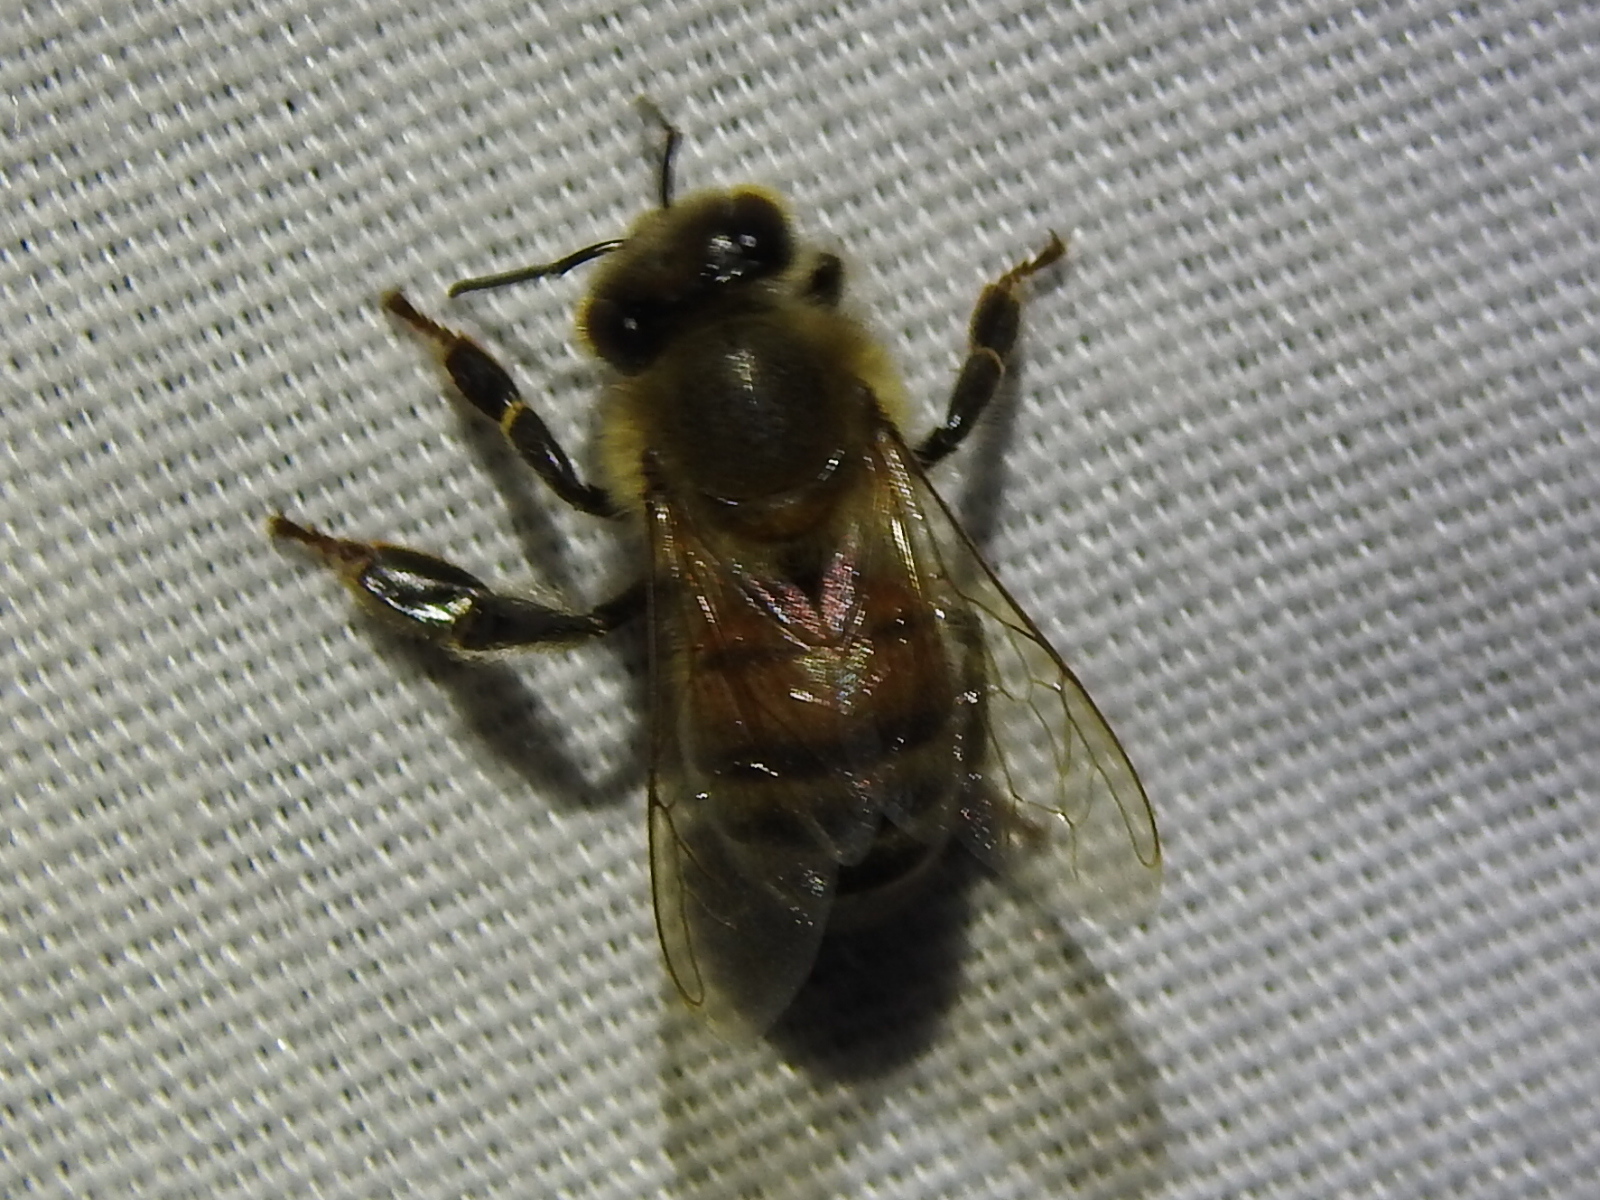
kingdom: Animalia
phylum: Arthropoda
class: Insecta
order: Hymenoptera
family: Apidae
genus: Apis
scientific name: Apis mellifera
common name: Honey bee
